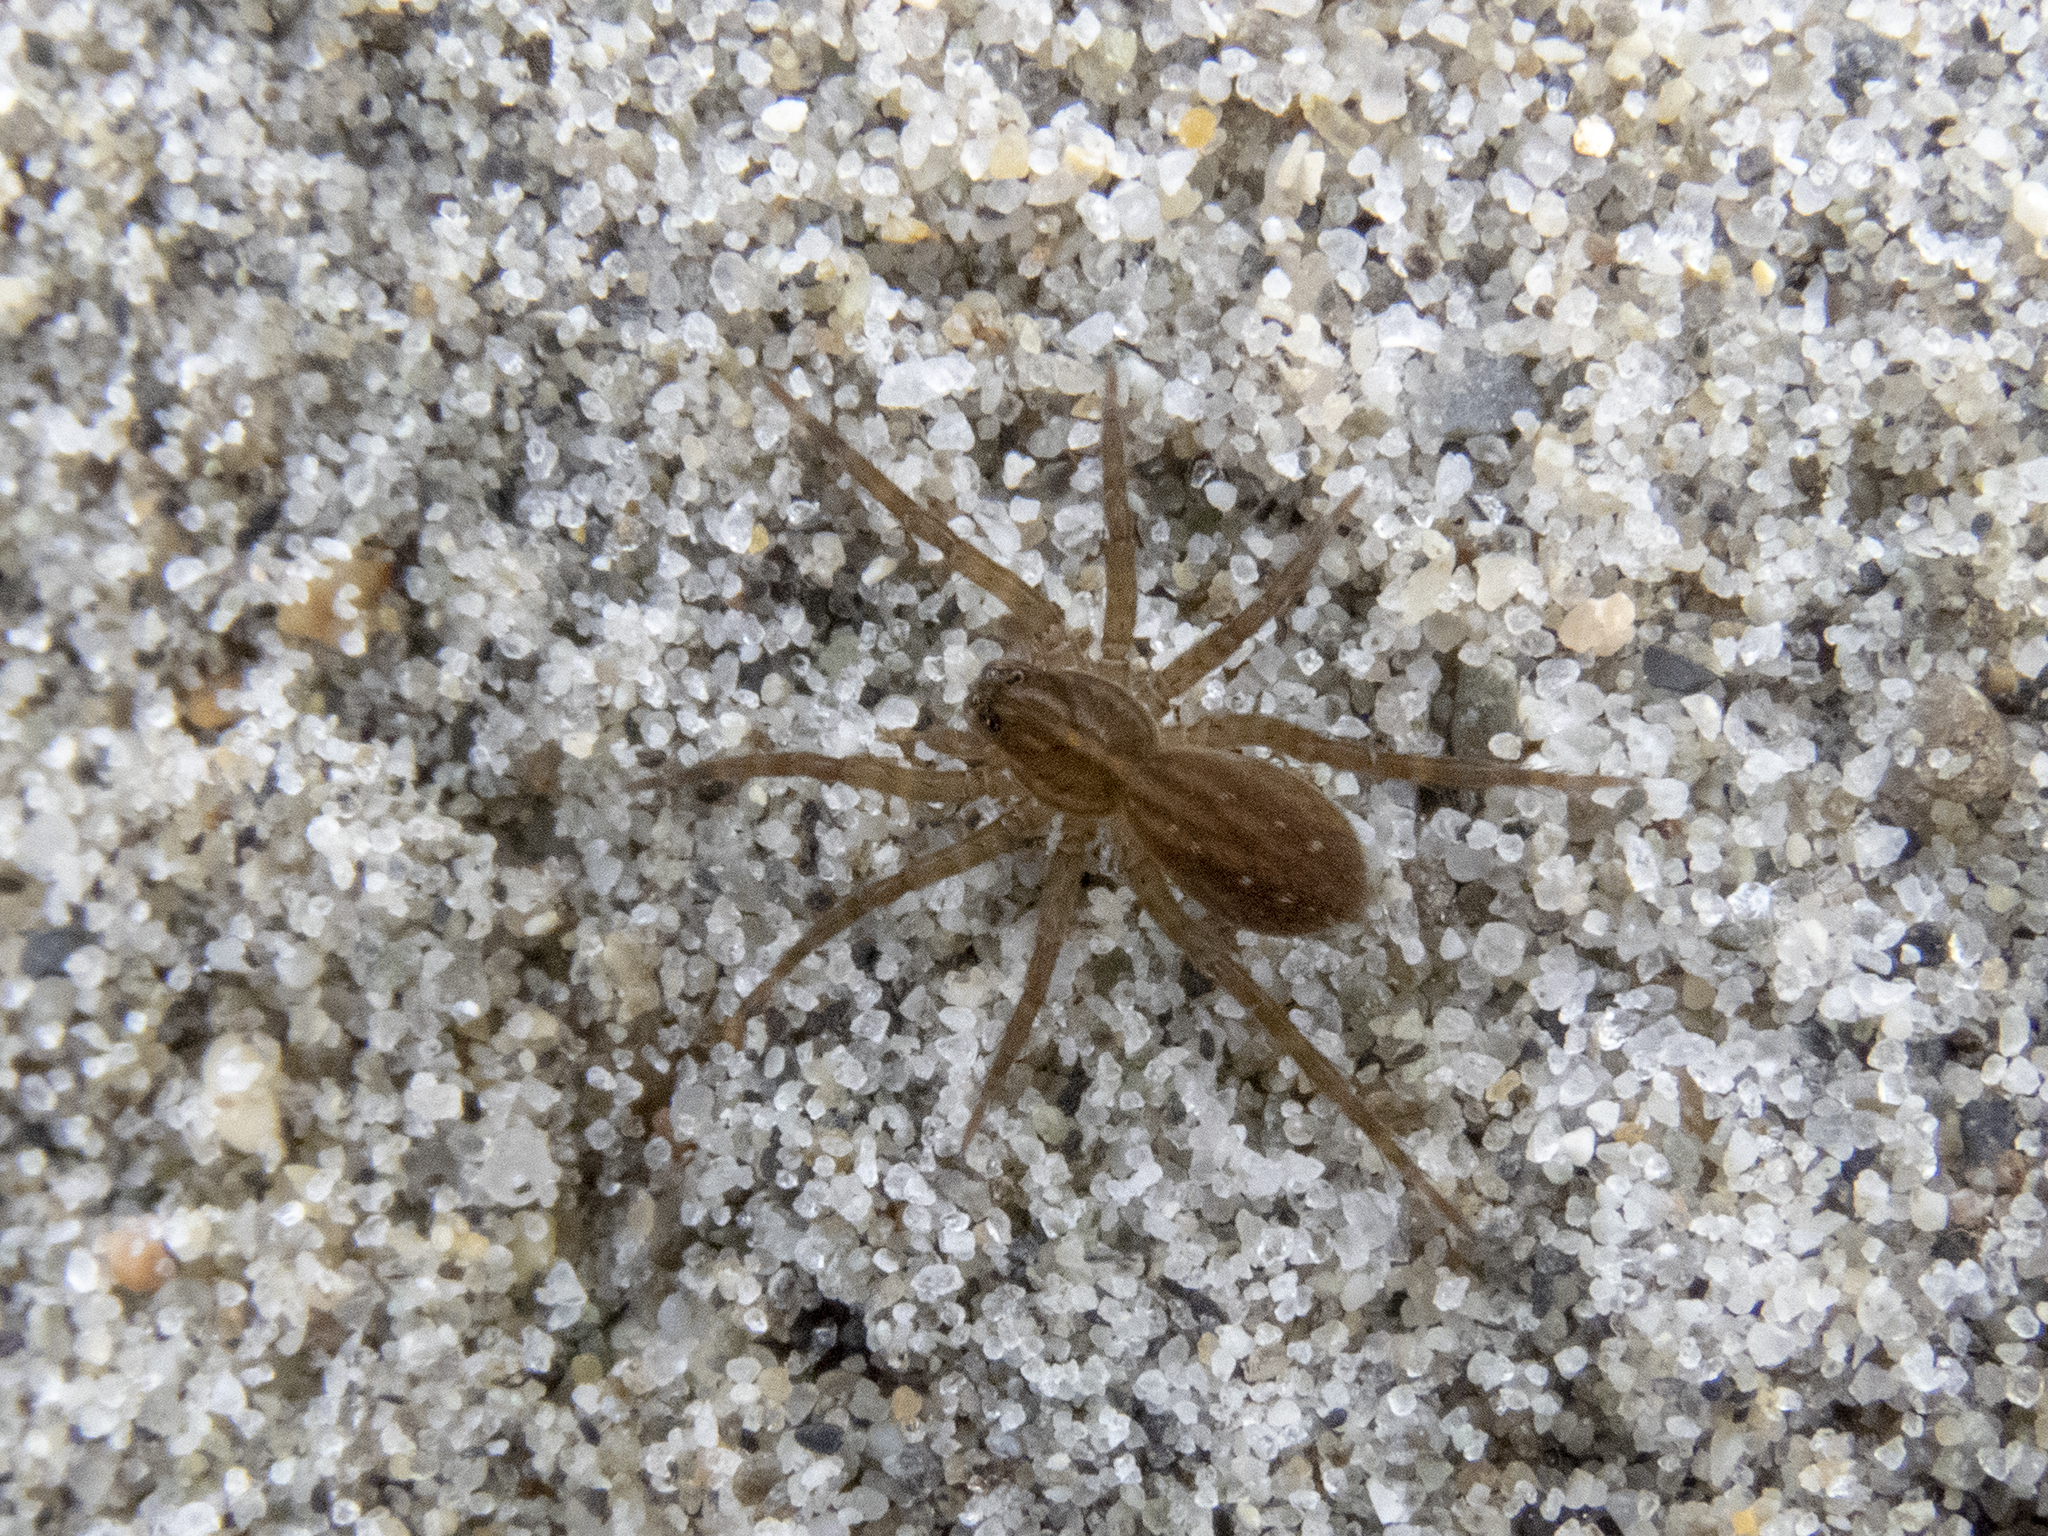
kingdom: Animalia
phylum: Arthropoda
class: Arachnida
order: Araneae
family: Lycosidae
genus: Allotrochosina
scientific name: Allotrochosina schauinslandi
